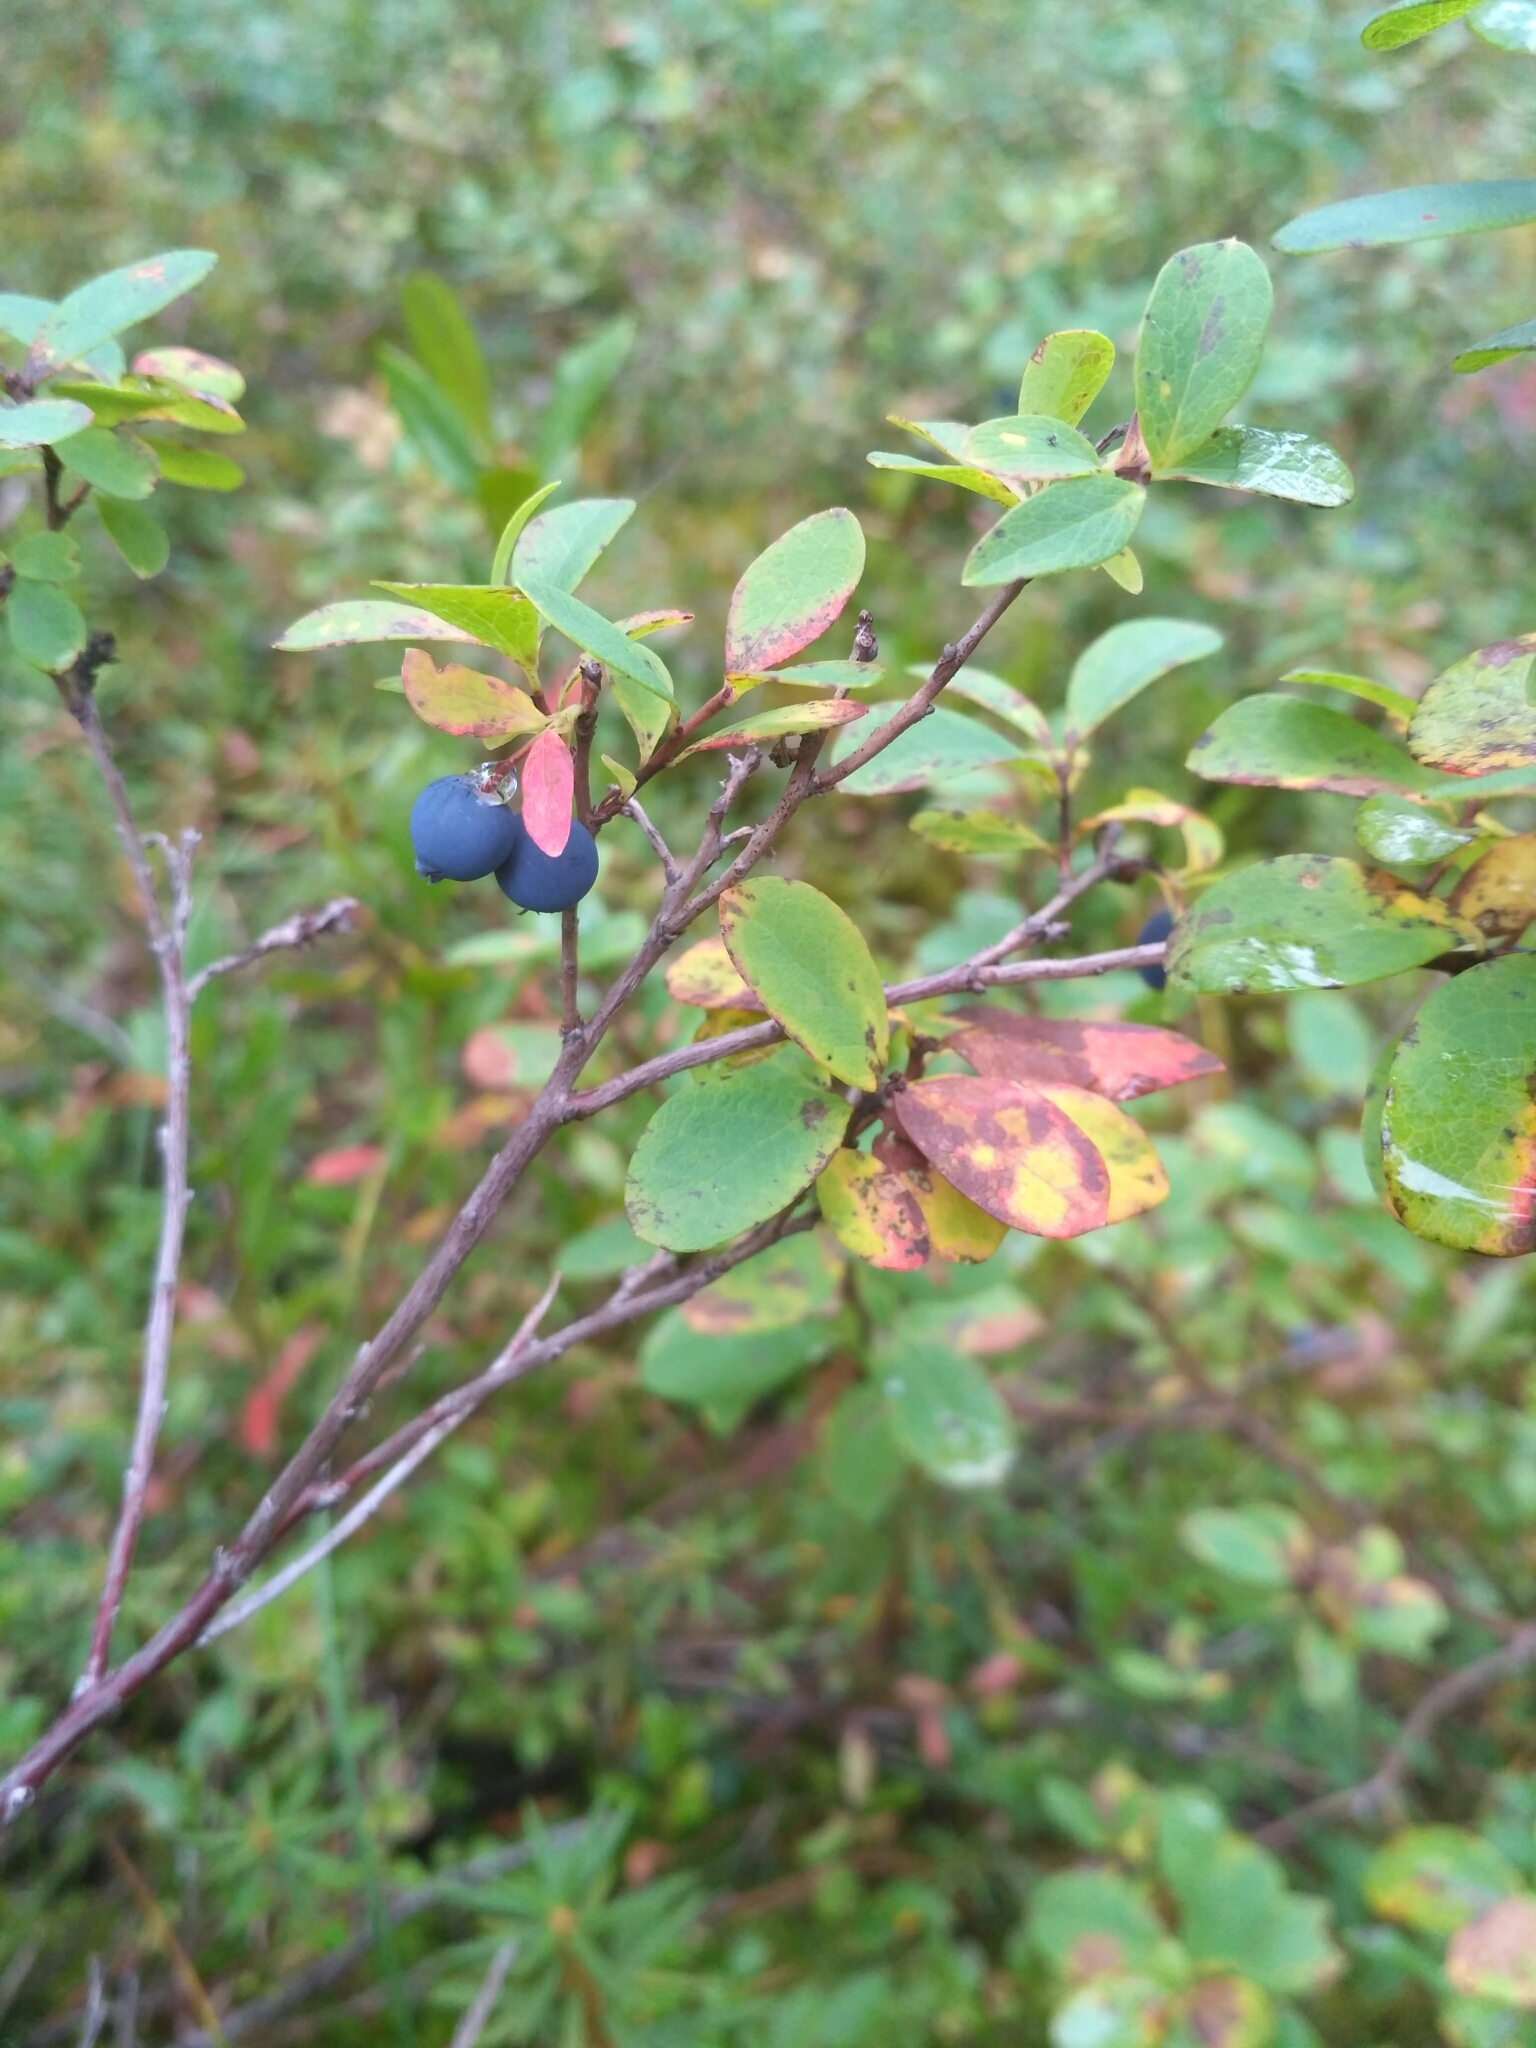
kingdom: Plantae
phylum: Tracheophyta
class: Magnoliopsida
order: Ericales
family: Ericaceae
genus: Vaccinium
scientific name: Vaccinium uliginosum
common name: Bog bilberry
